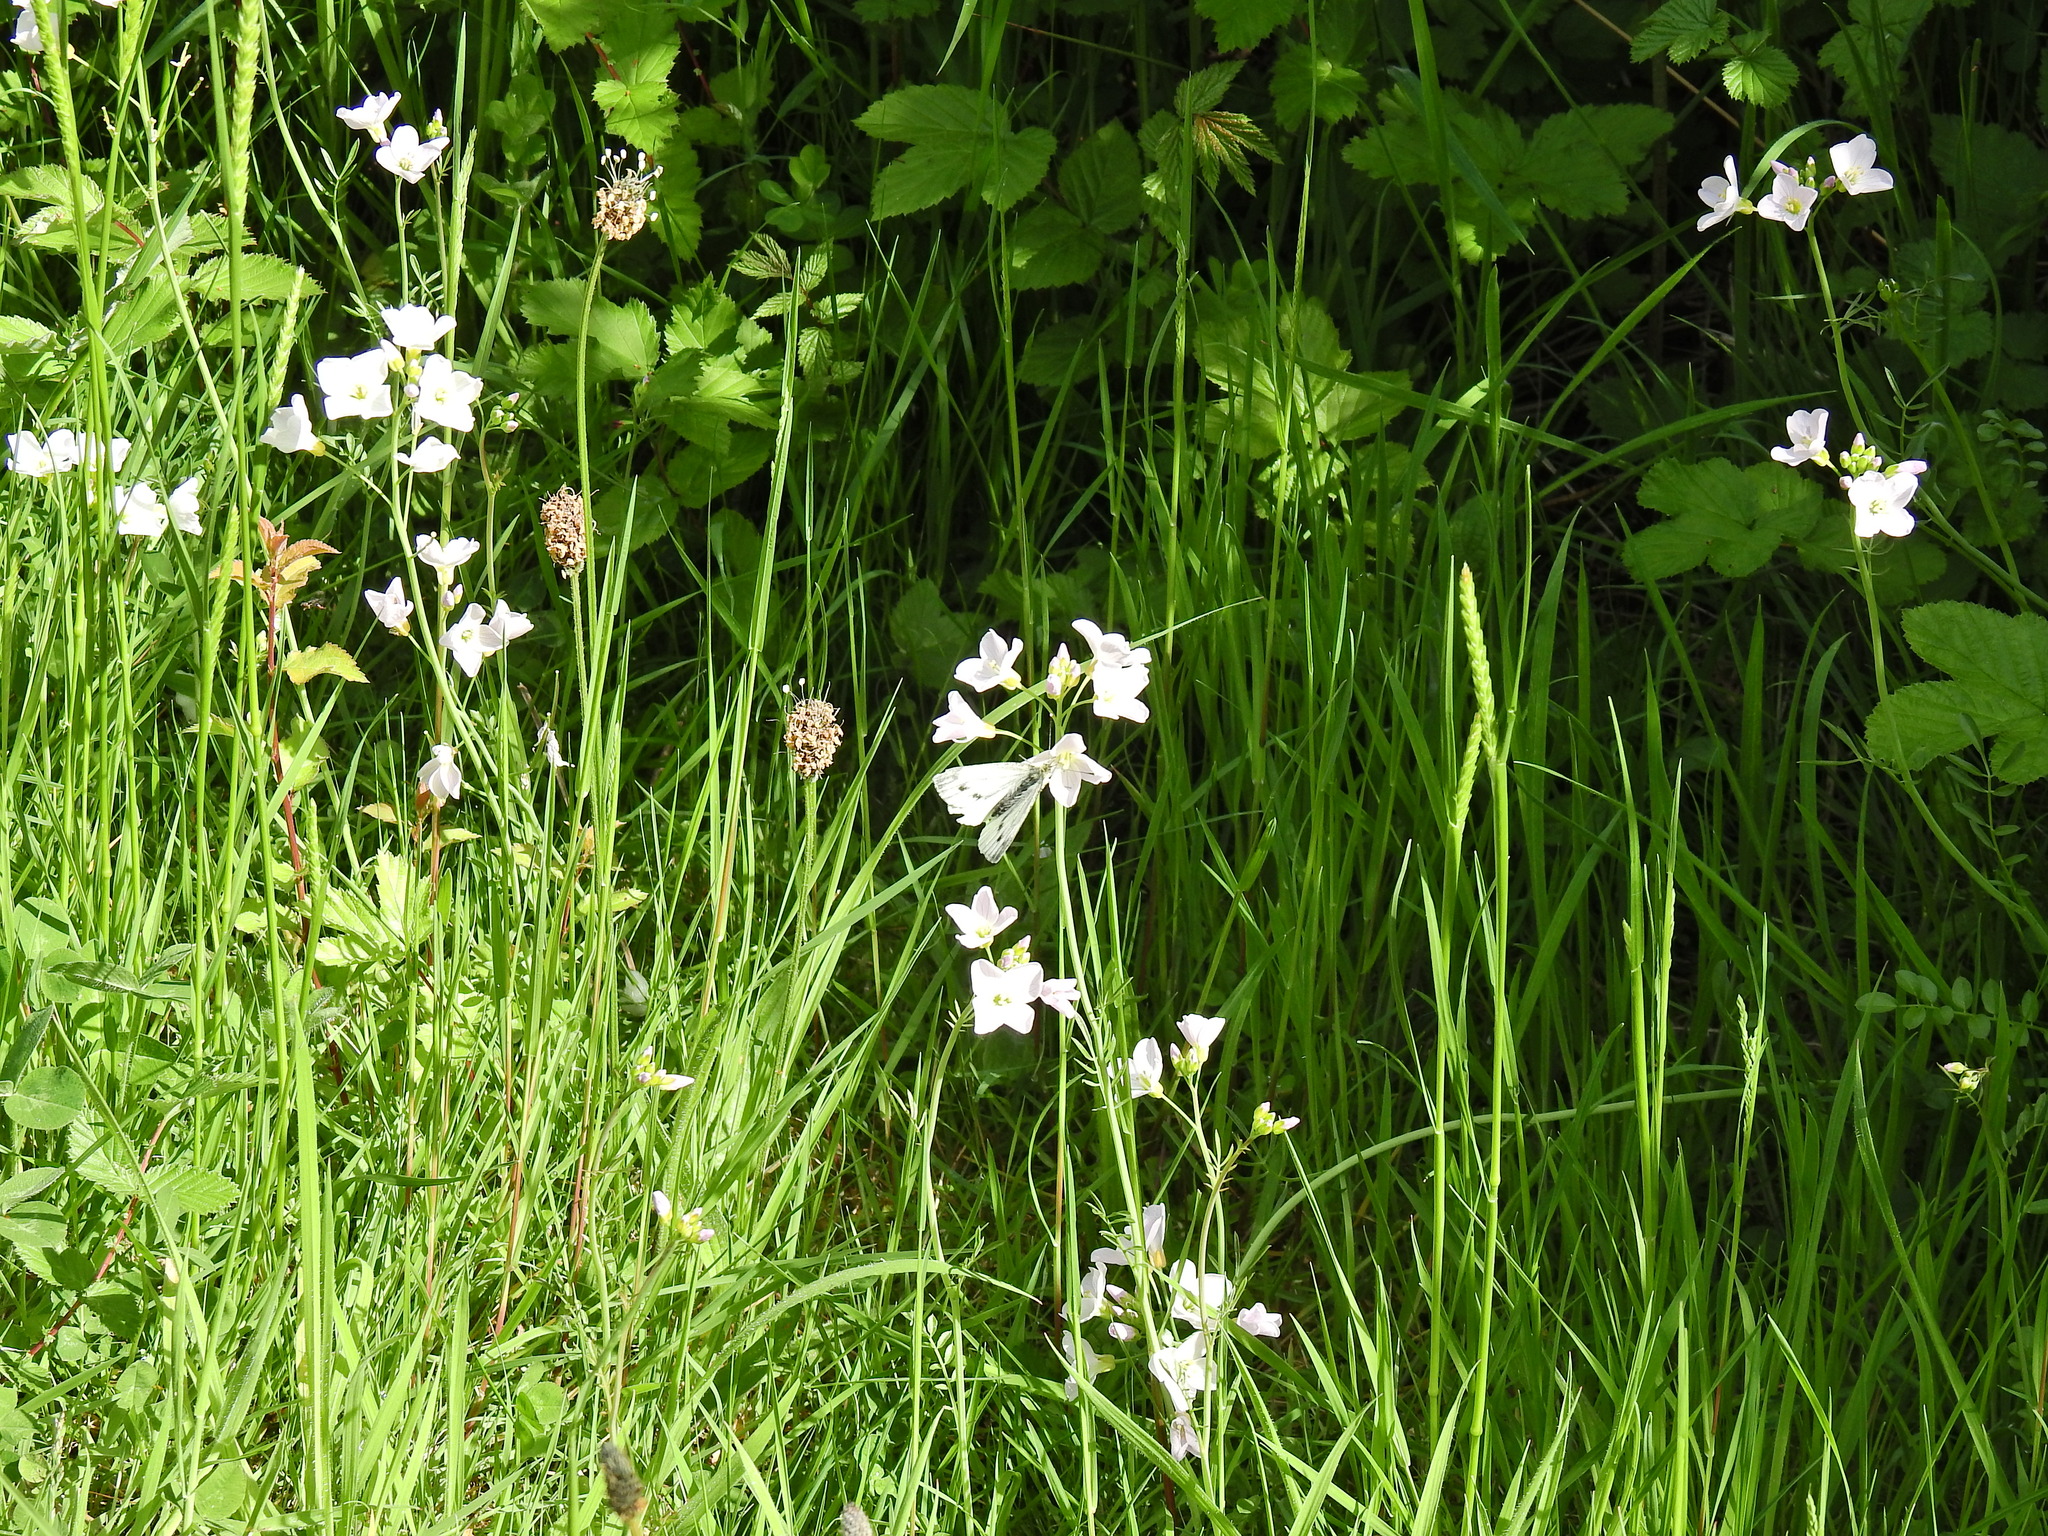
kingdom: Plantae
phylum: Tracheophyta
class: Magnoliopsida
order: Brassicales
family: Brassicaceae
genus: Cardamine
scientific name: Cardamine pratensis
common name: Cuckoo flower
